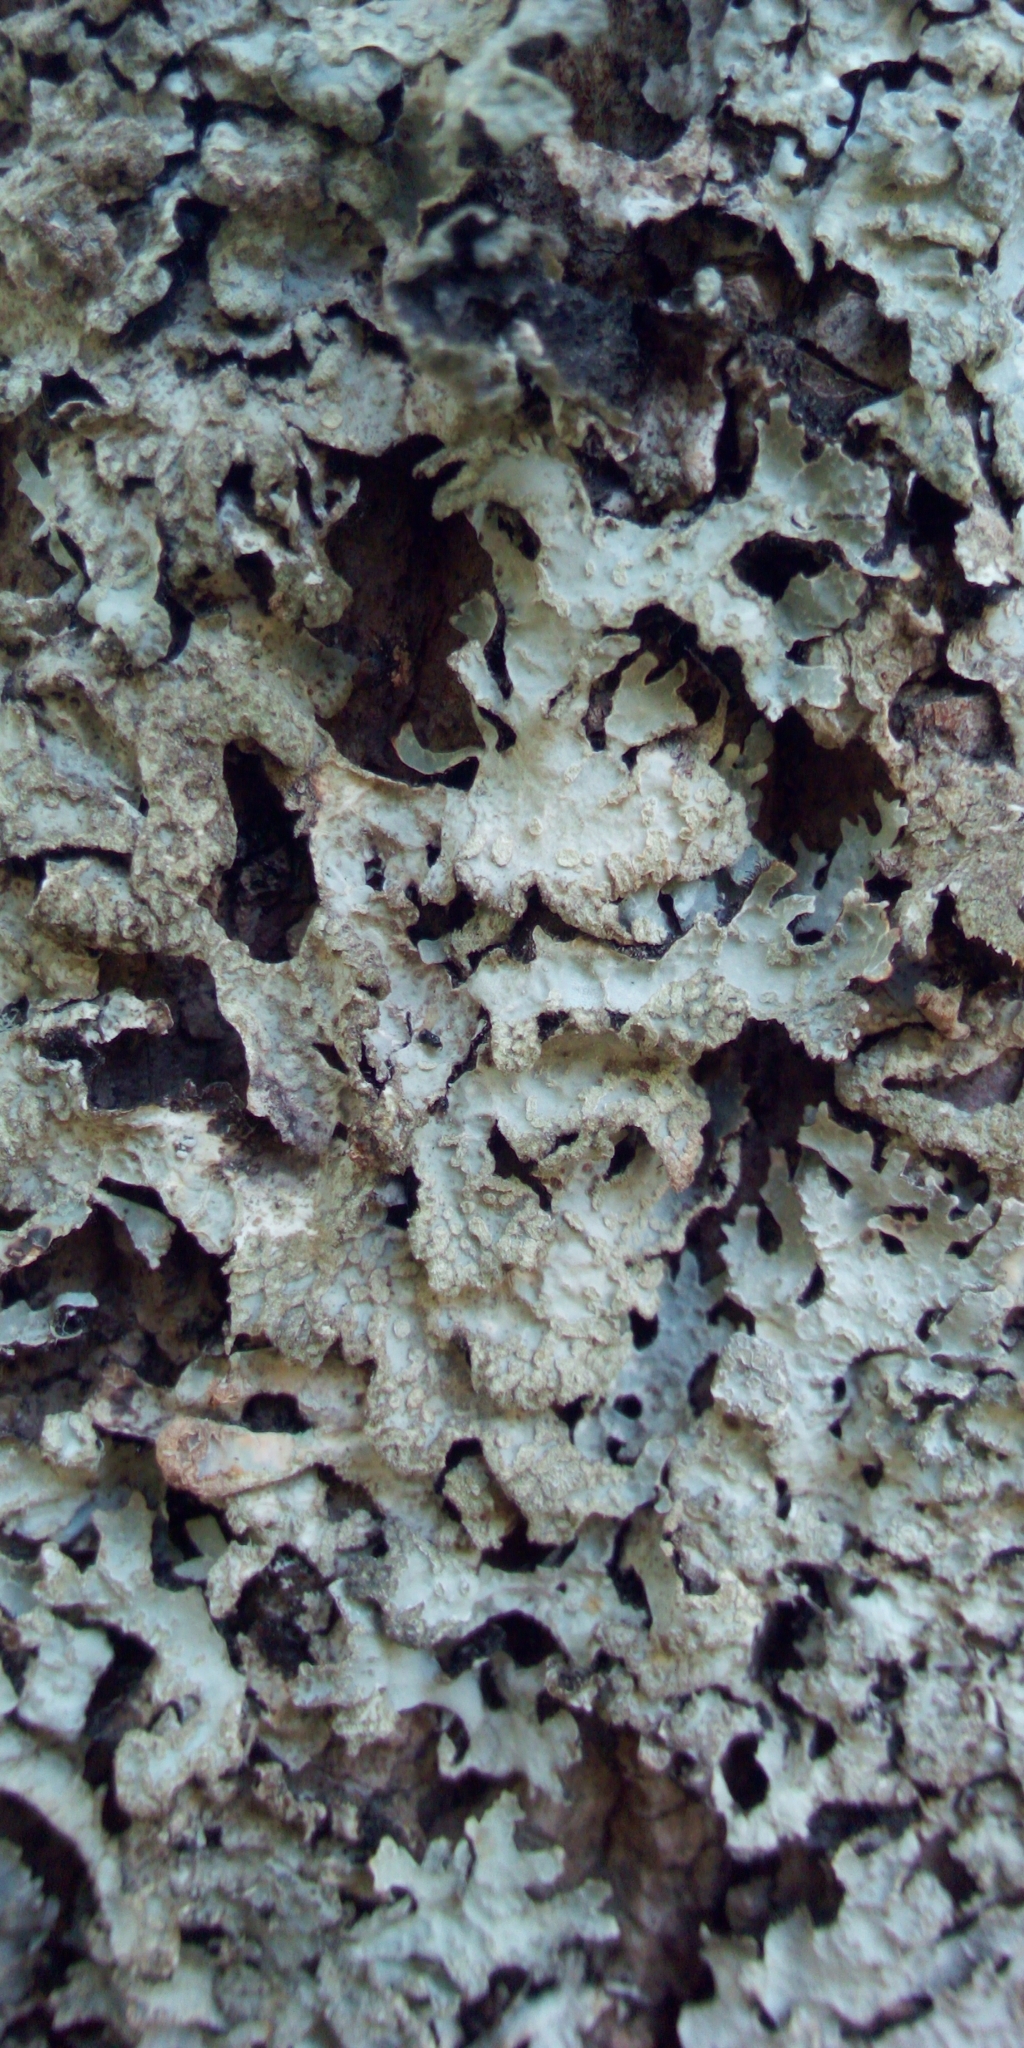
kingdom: Fungi
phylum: Ascomycota
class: Lecanoromycetes
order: Lecanorales
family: Parmeliaceae
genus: Parmelia
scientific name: Parmelia sulcata
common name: Netted shield lichen
